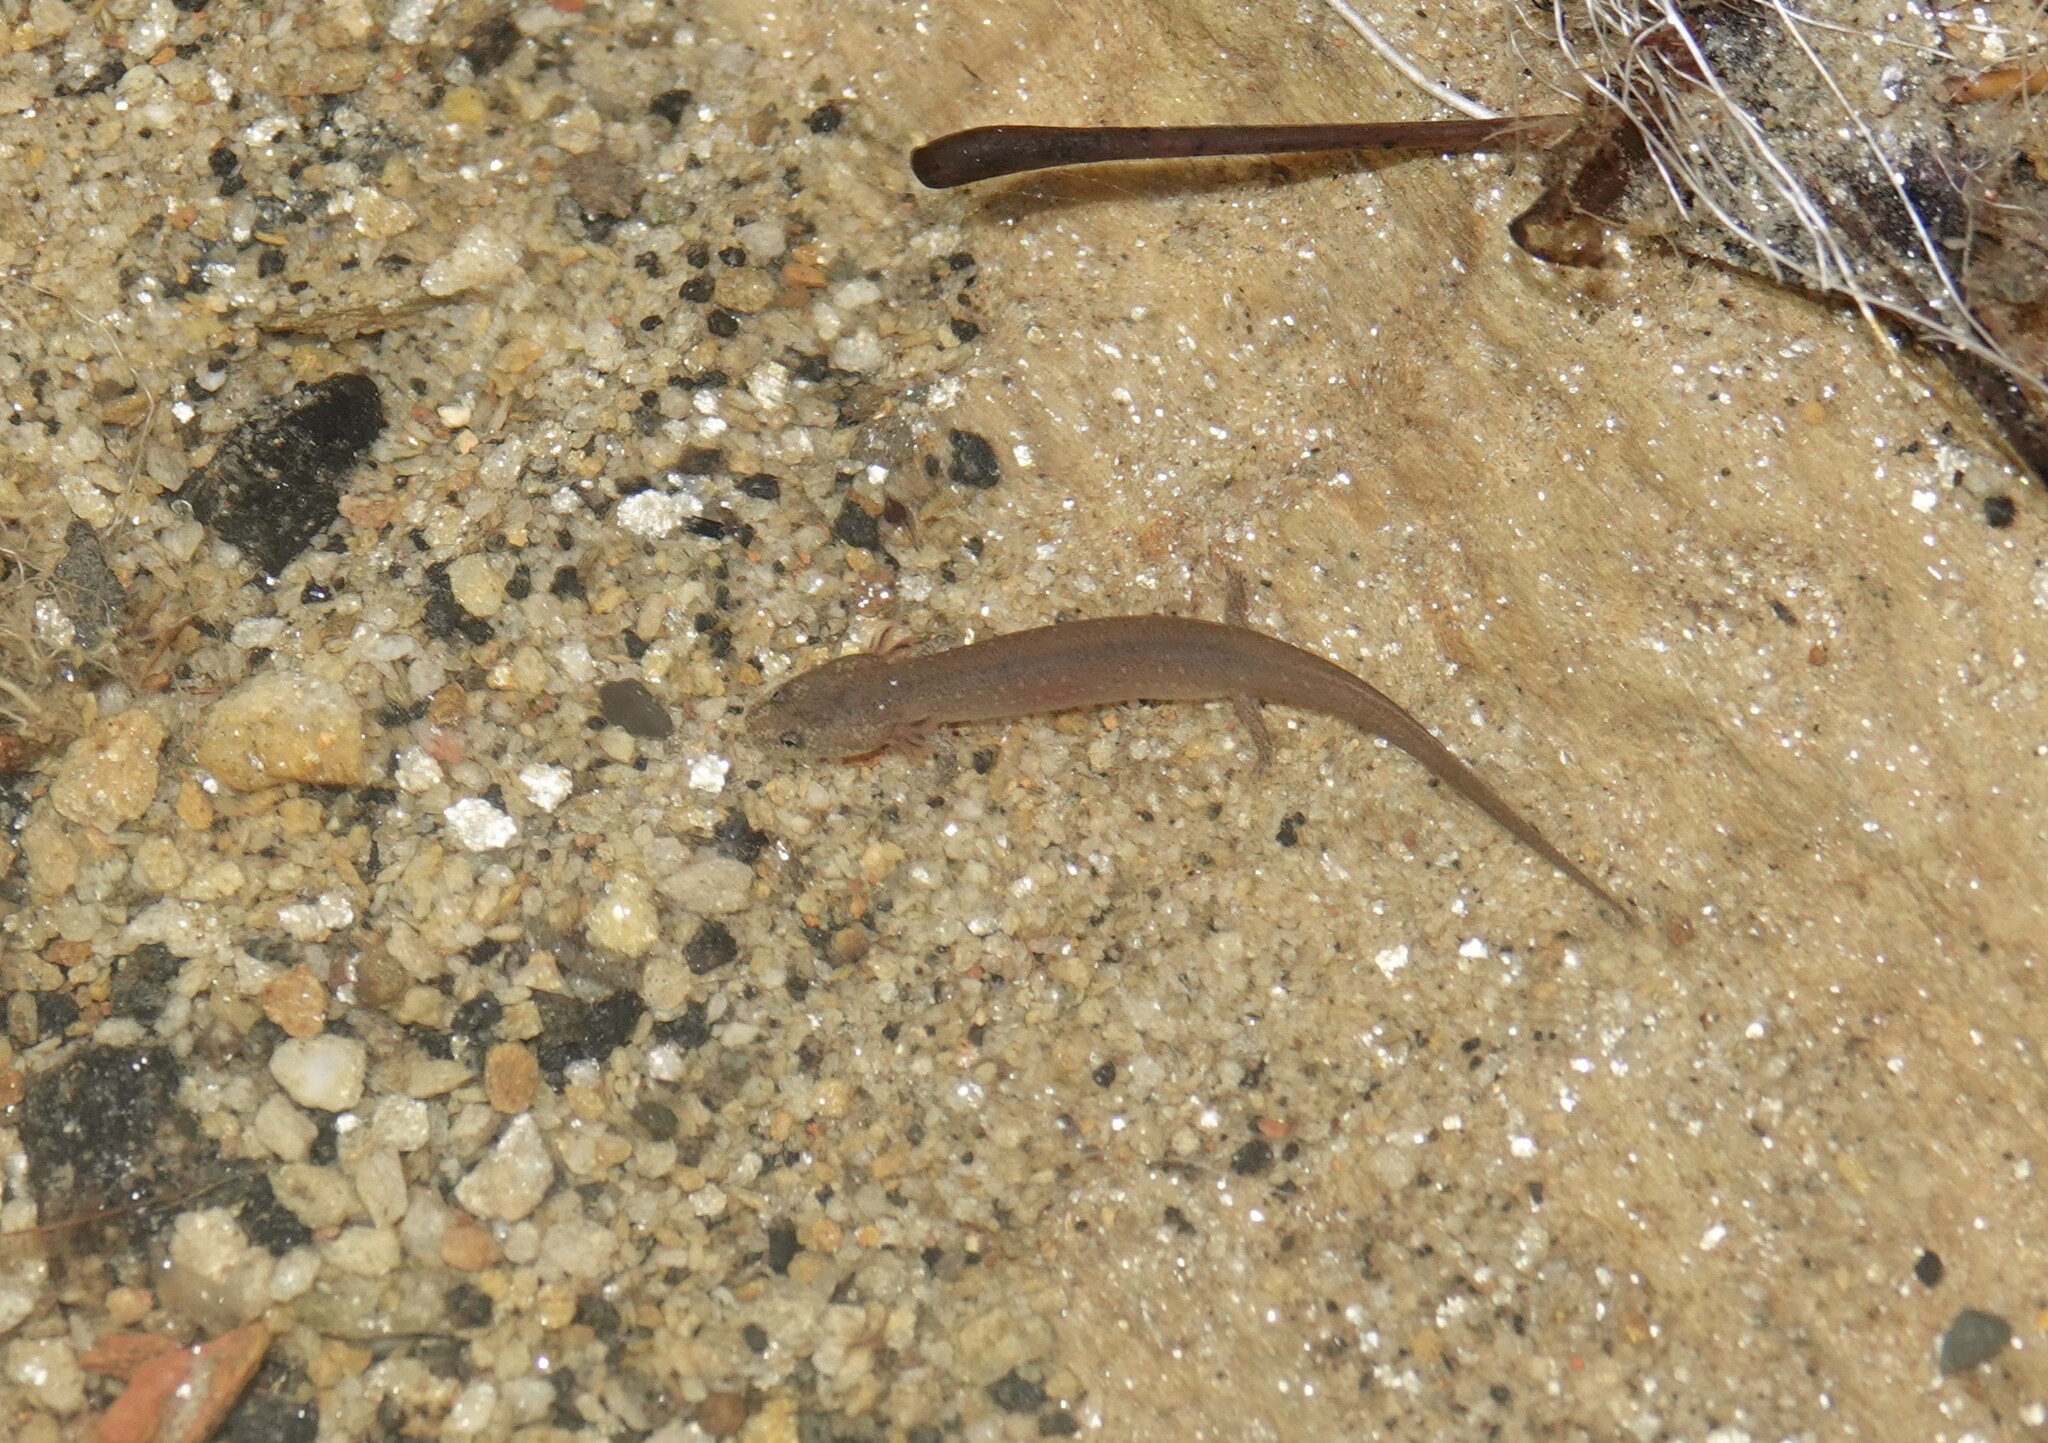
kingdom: Animalia
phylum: Chordata
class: Amphibia
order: Caudata
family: Plethodontidae
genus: Pseudotriton
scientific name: Pseudotriton ruber
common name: Red salamander
